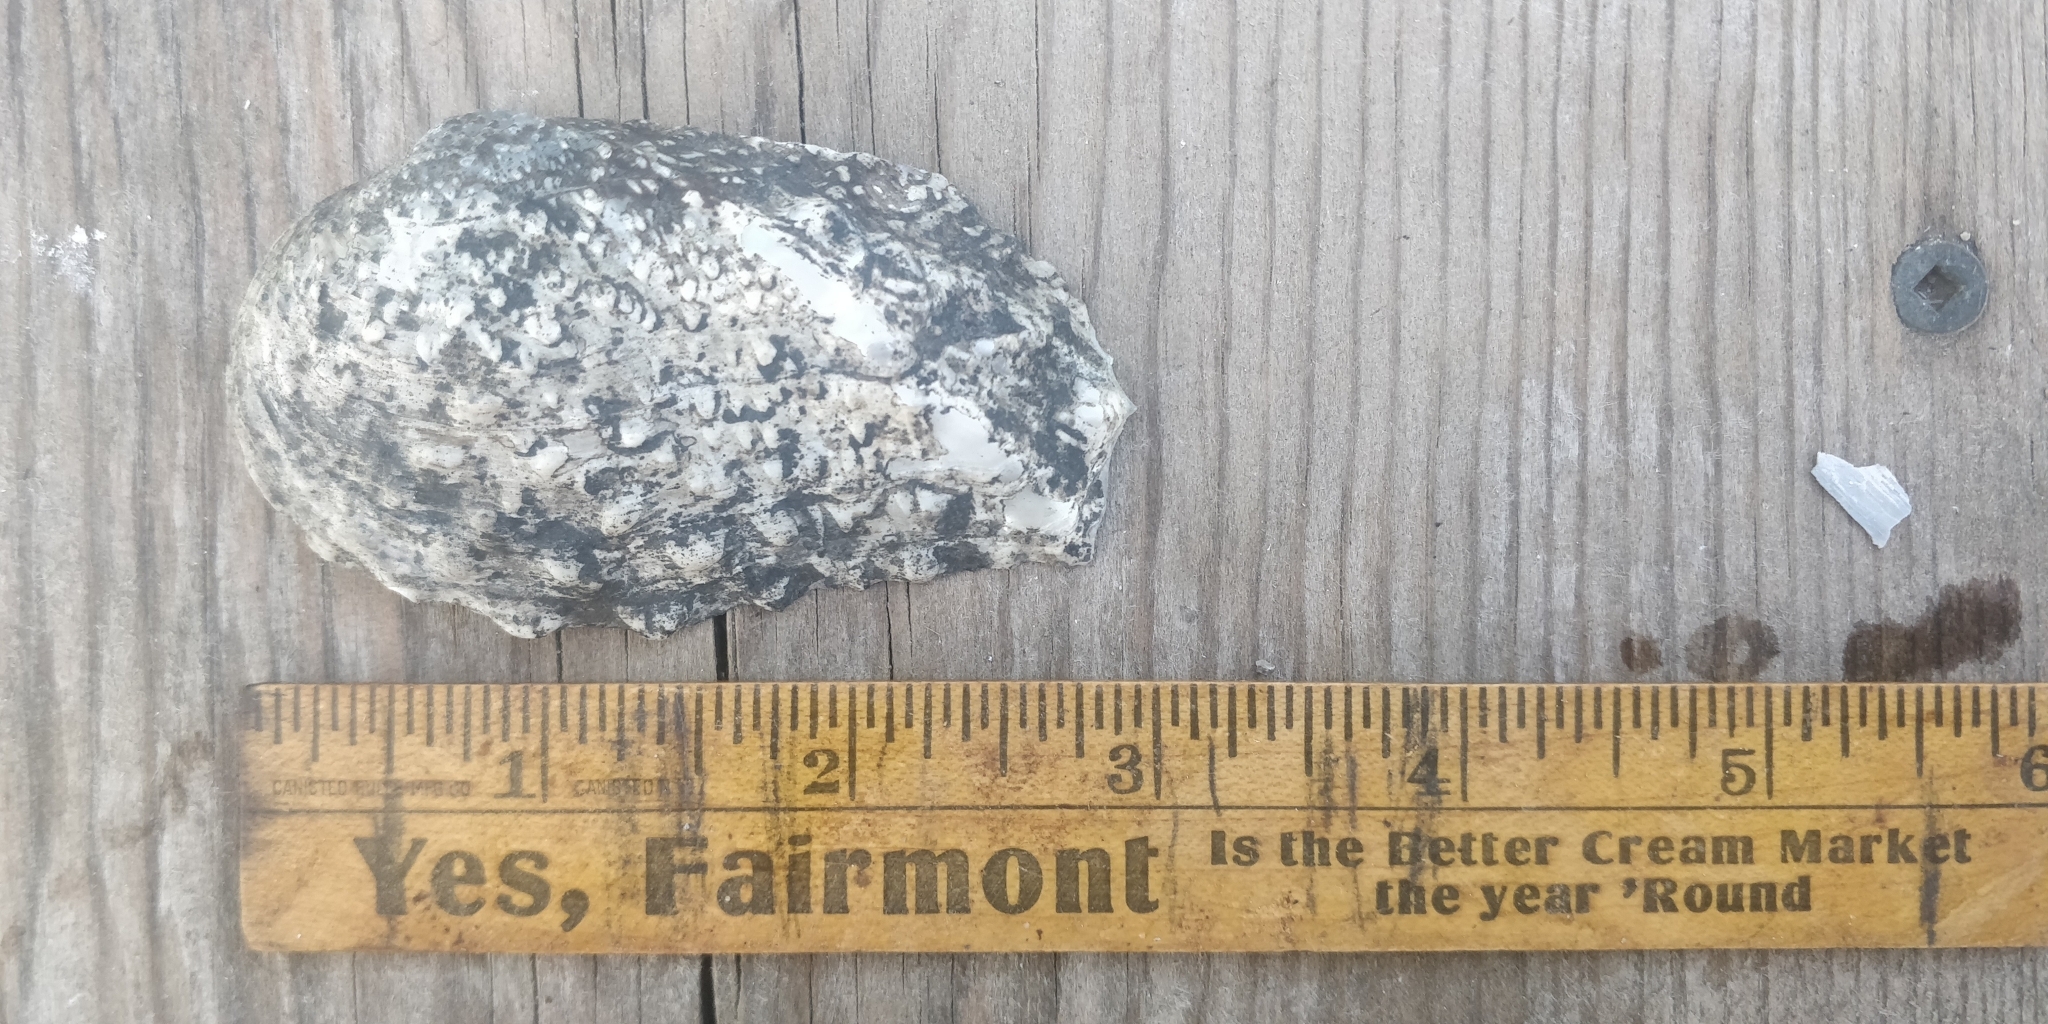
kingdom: Animalia
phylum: Mollusca
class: Bivalvia
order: Unionida
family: Unionidae
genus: Tritogonia
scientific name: Tritogonia verrucosa
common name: Pistolgrip
